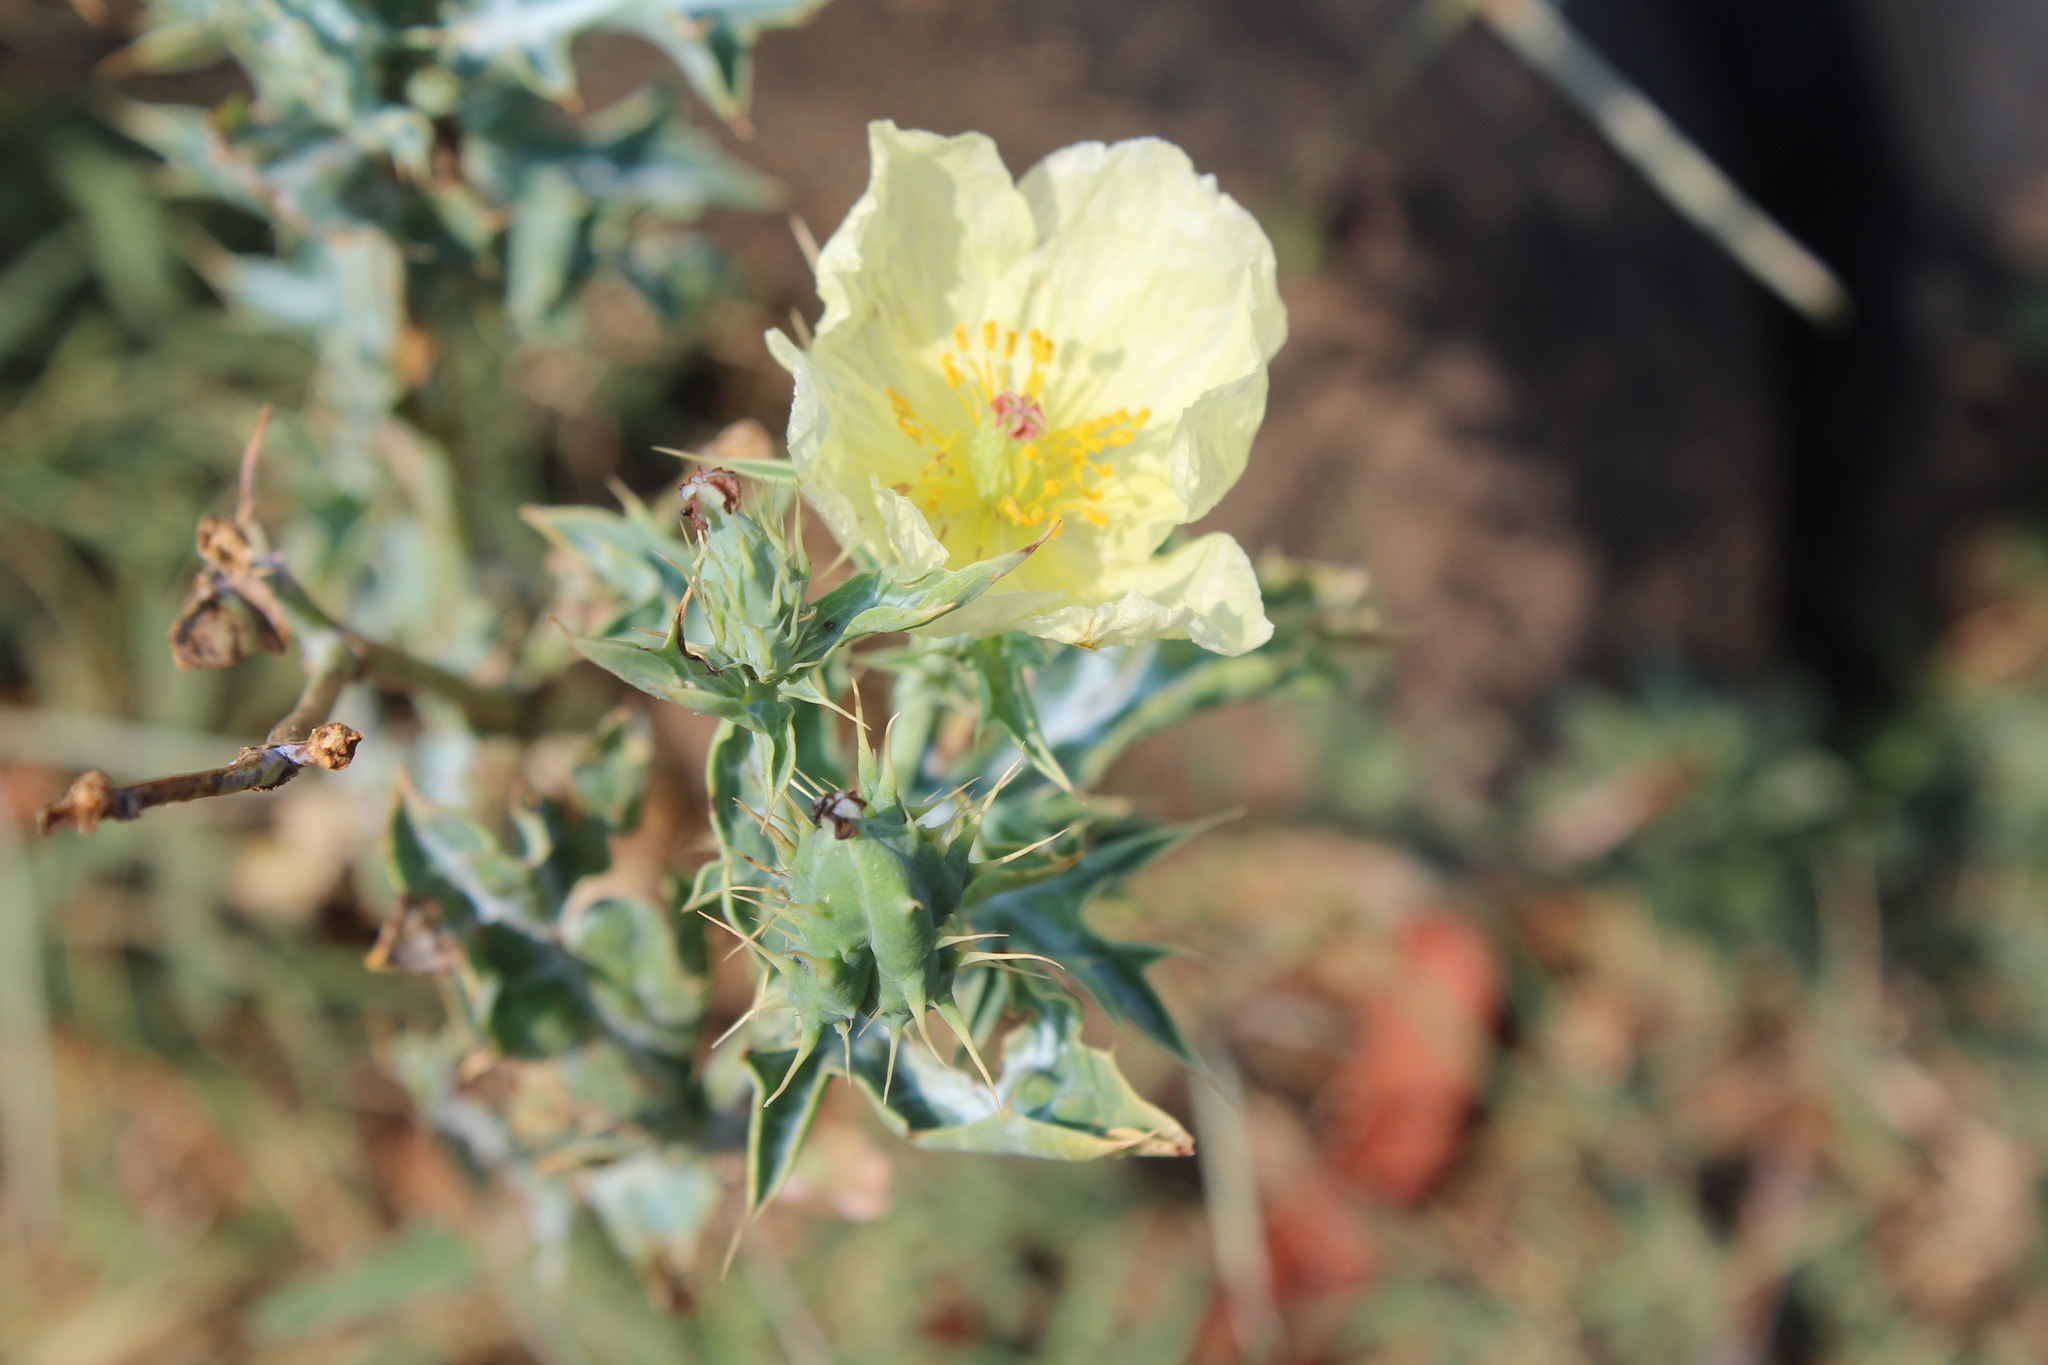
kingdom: Plantae
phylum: Tracheophyta
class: Magnoliopsida
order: Ranunculales
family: Papaveraceae
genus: Argemone
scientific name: Argemone ochroleuca
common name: White-flower mexican-poppy
